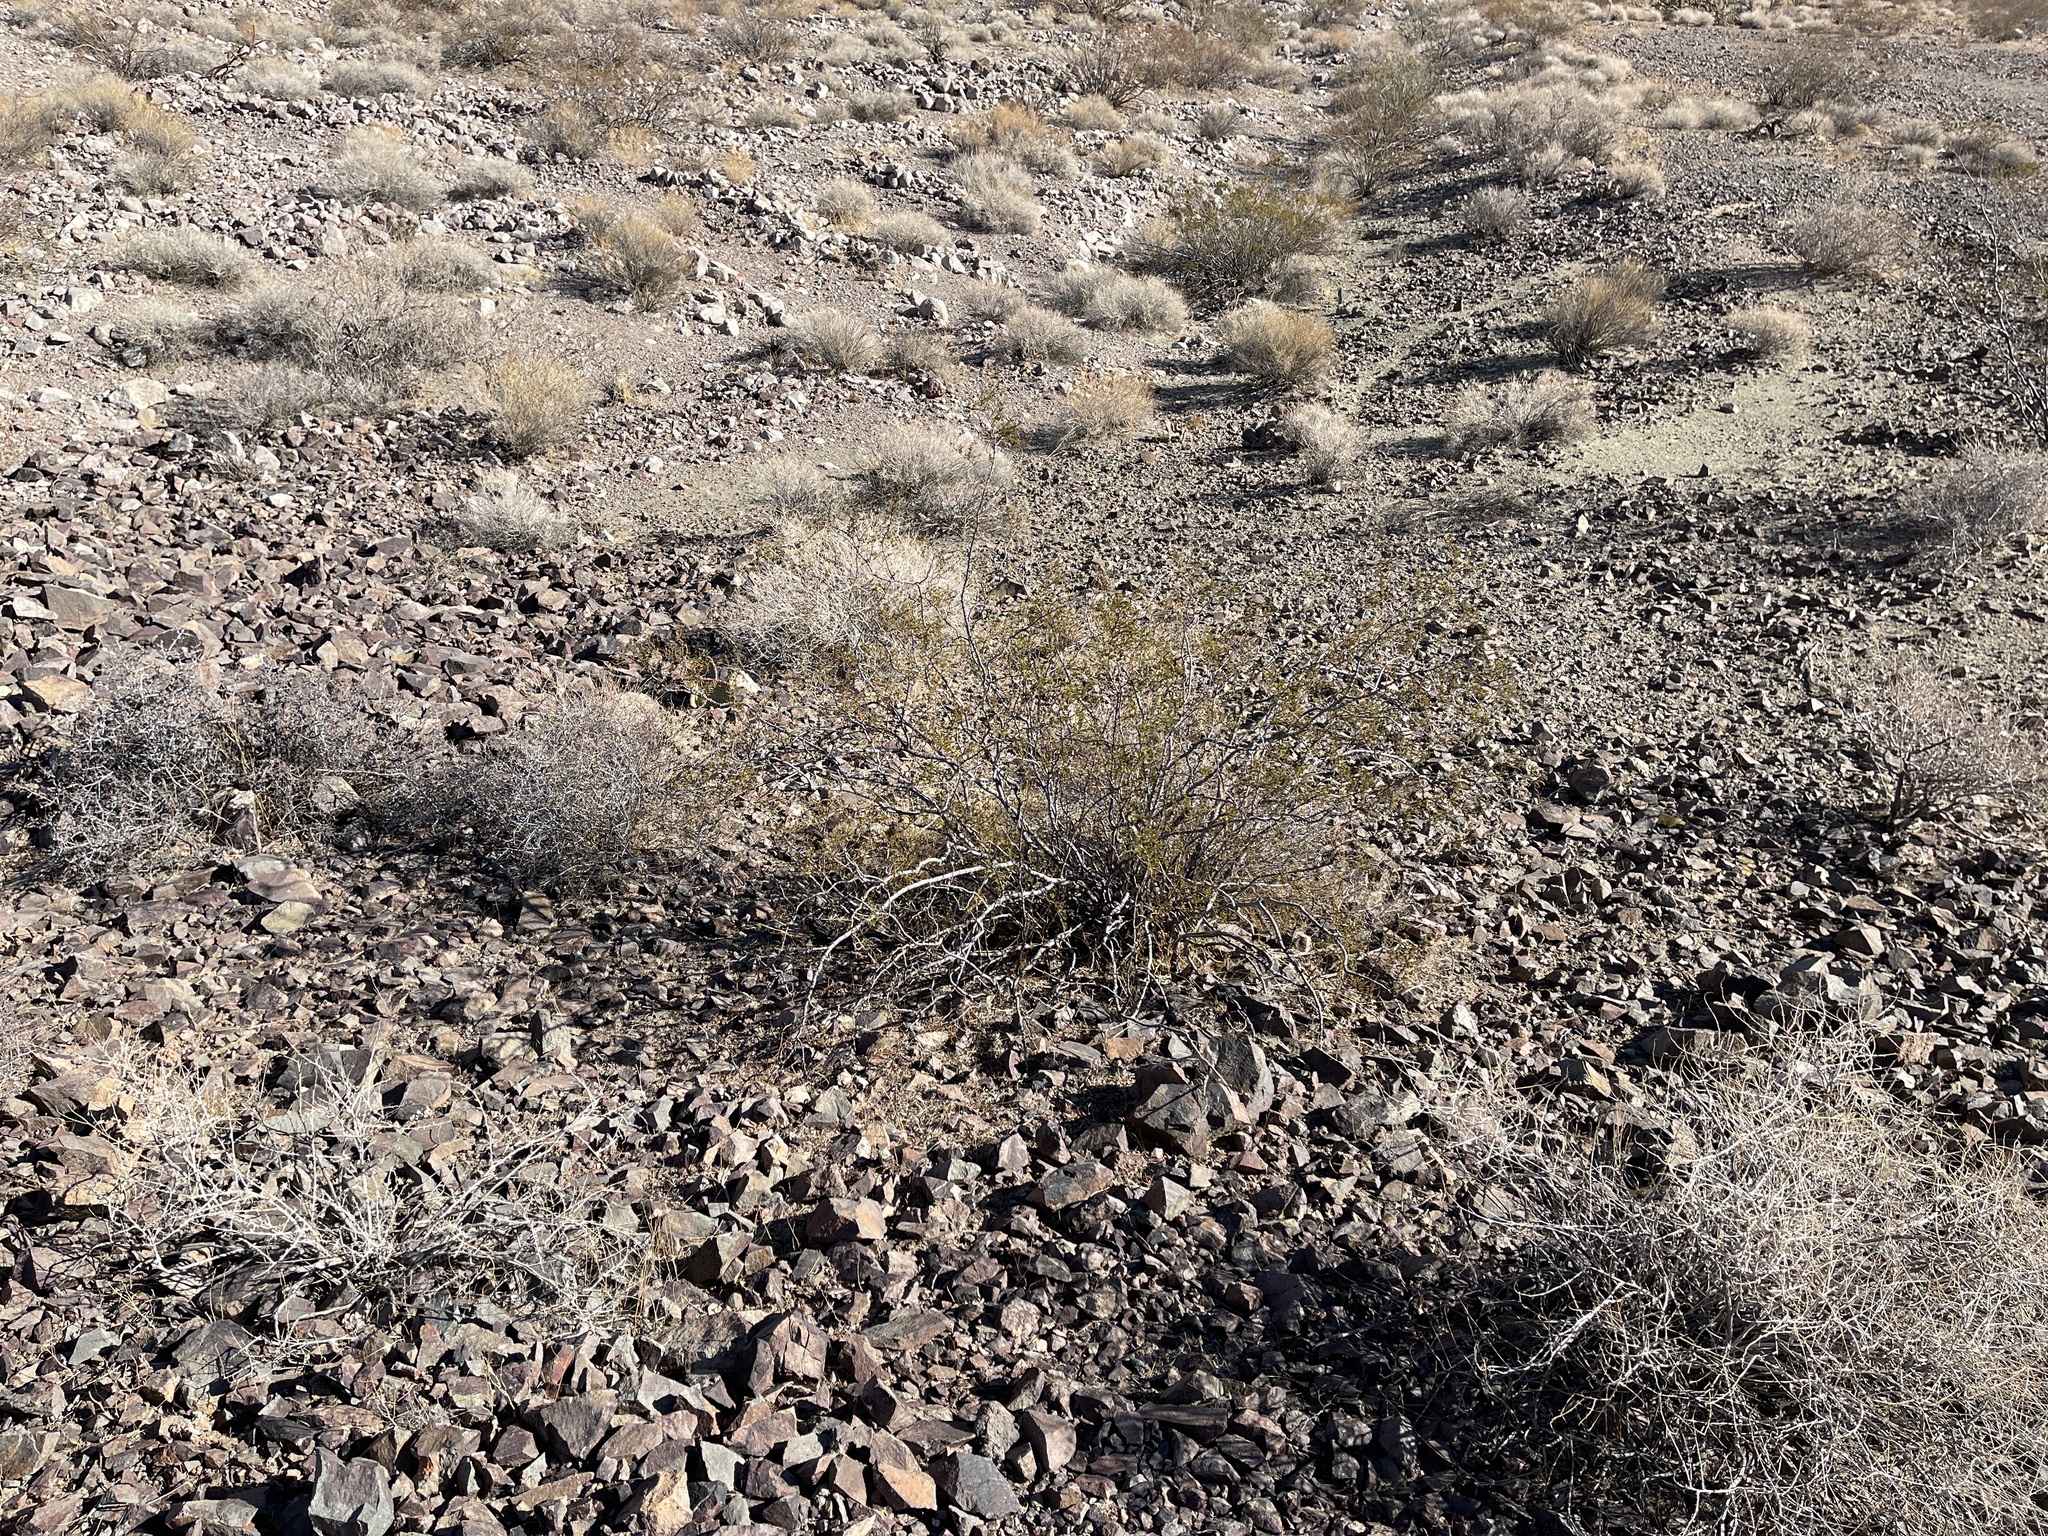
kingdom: Plantae
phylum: Tracheophyta
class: Magnoliopsida
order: Zygophyllales
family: Zygophyllaceae
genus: Larrea
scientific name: Larrea tridentata
